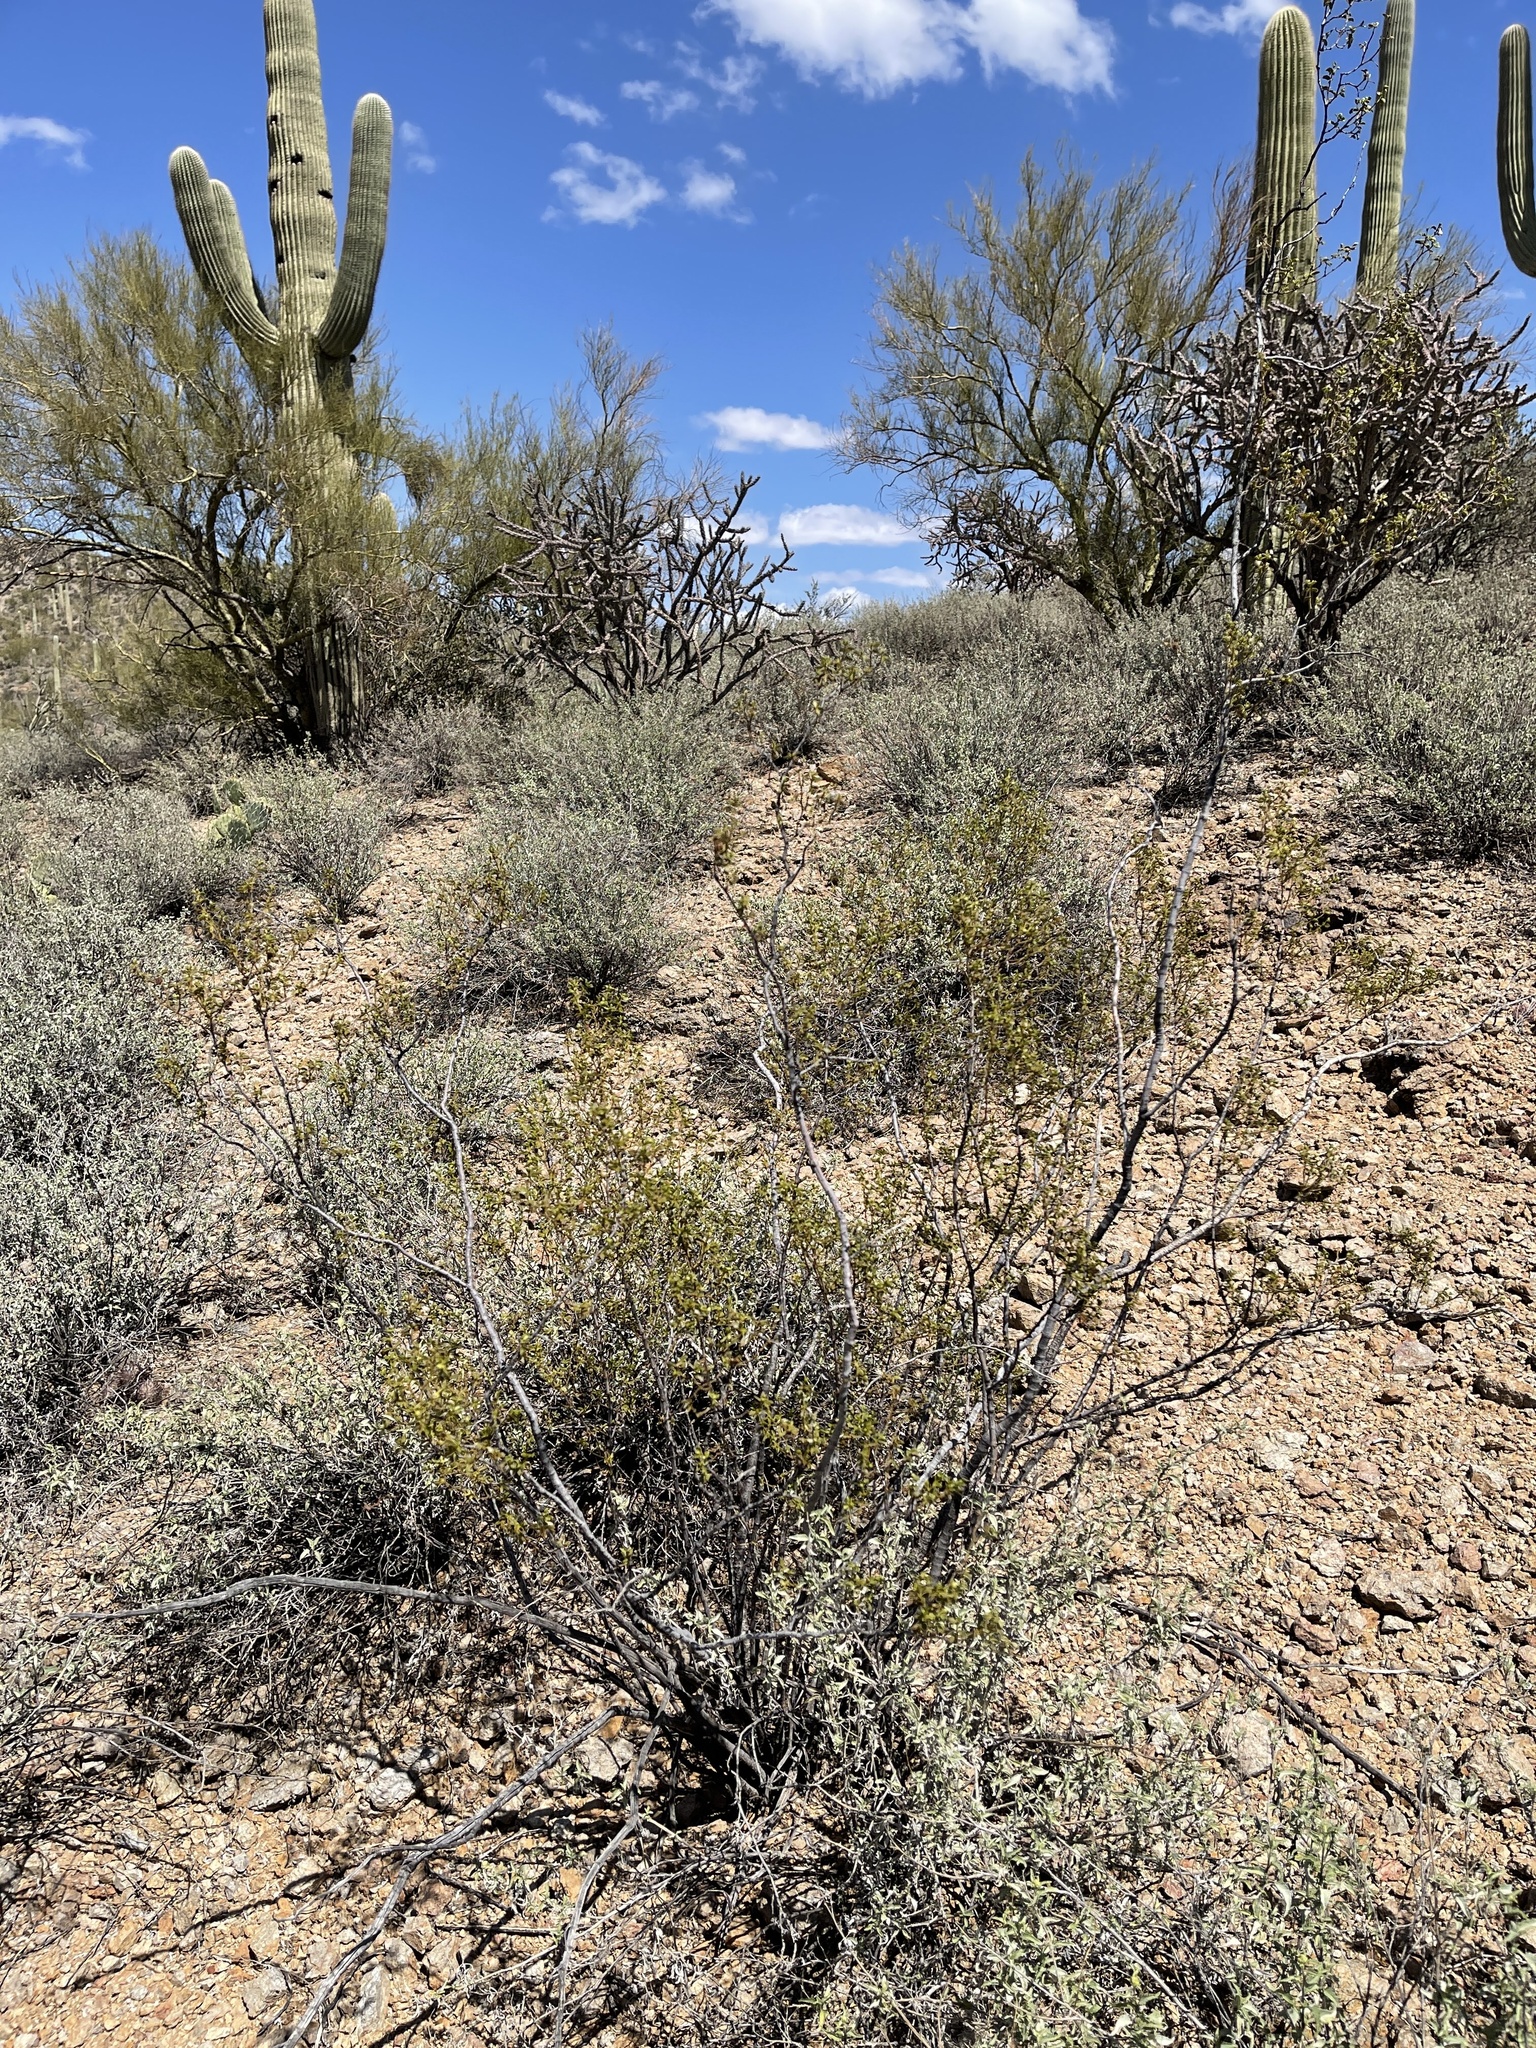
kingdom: Plantae
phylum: Tracheophyta
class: Magnoliopsida
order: Zygophyllales
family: Zygophyllaceae
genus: Larrea
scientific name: Larrea tridentata
